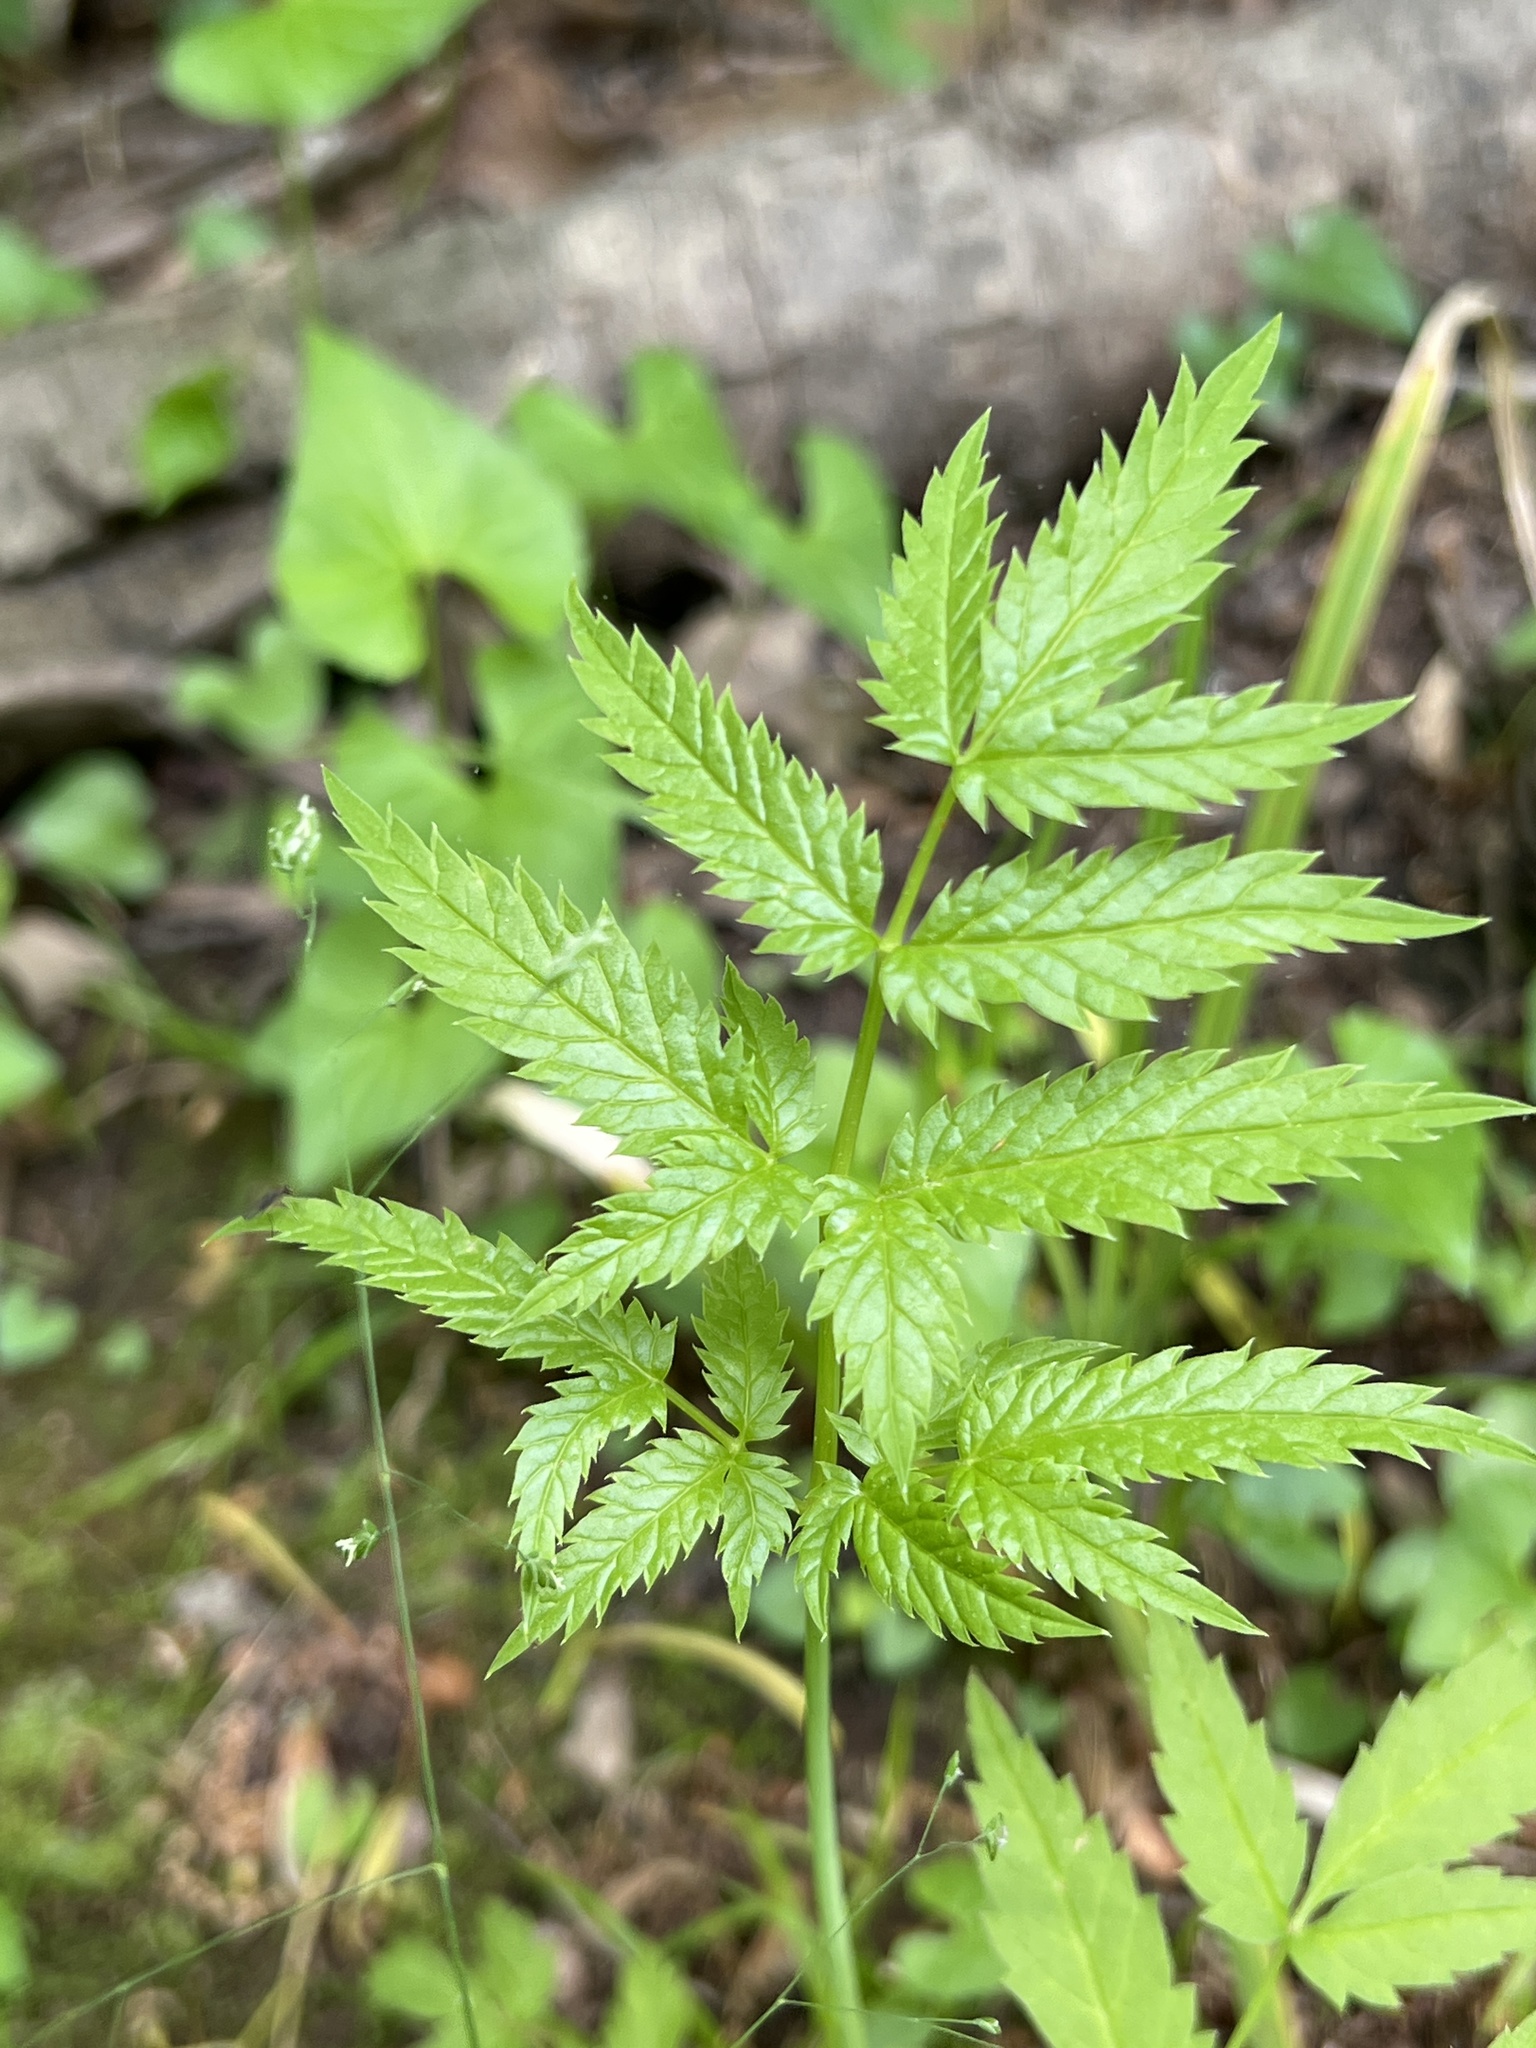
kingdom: Plantae
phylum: Tracheophyta
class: Magnoliopsida
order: Apiales
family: Apiaceae
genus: Cicuta
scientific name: Cicuta maculata
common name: Spotted cowbane
